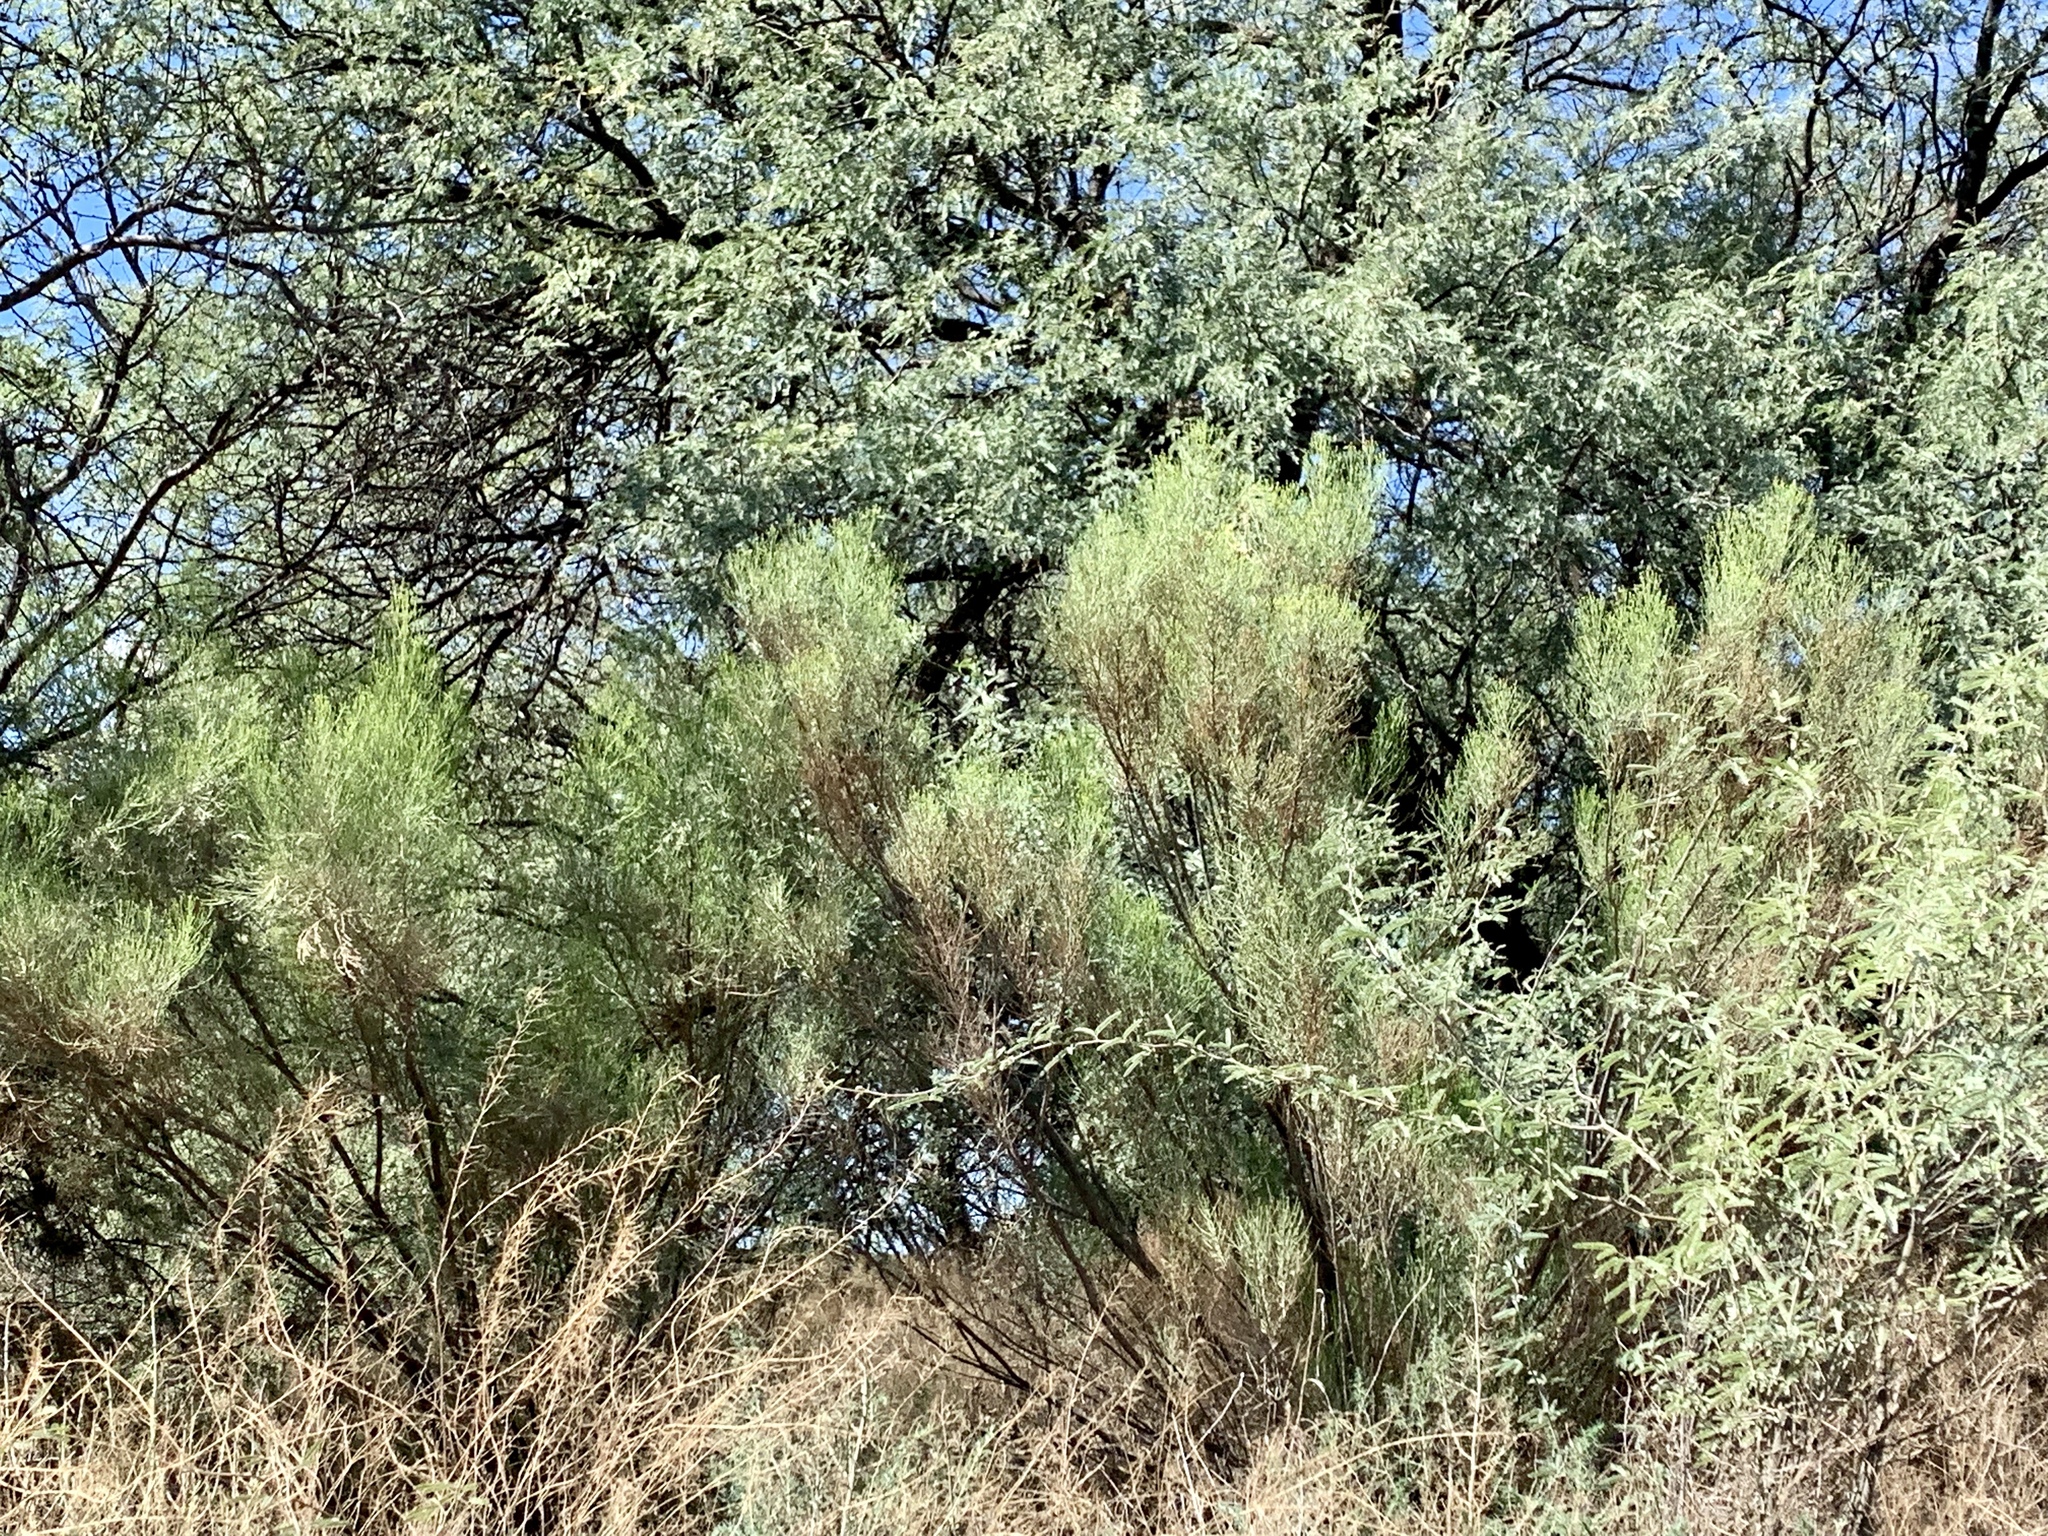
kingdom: Plantae
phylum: Tracheophyta
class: Magnoliopsida
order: Asterales
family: Asteraceae
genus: Baccharis
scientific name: Baccharis sarothroides
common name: Desert-broom
